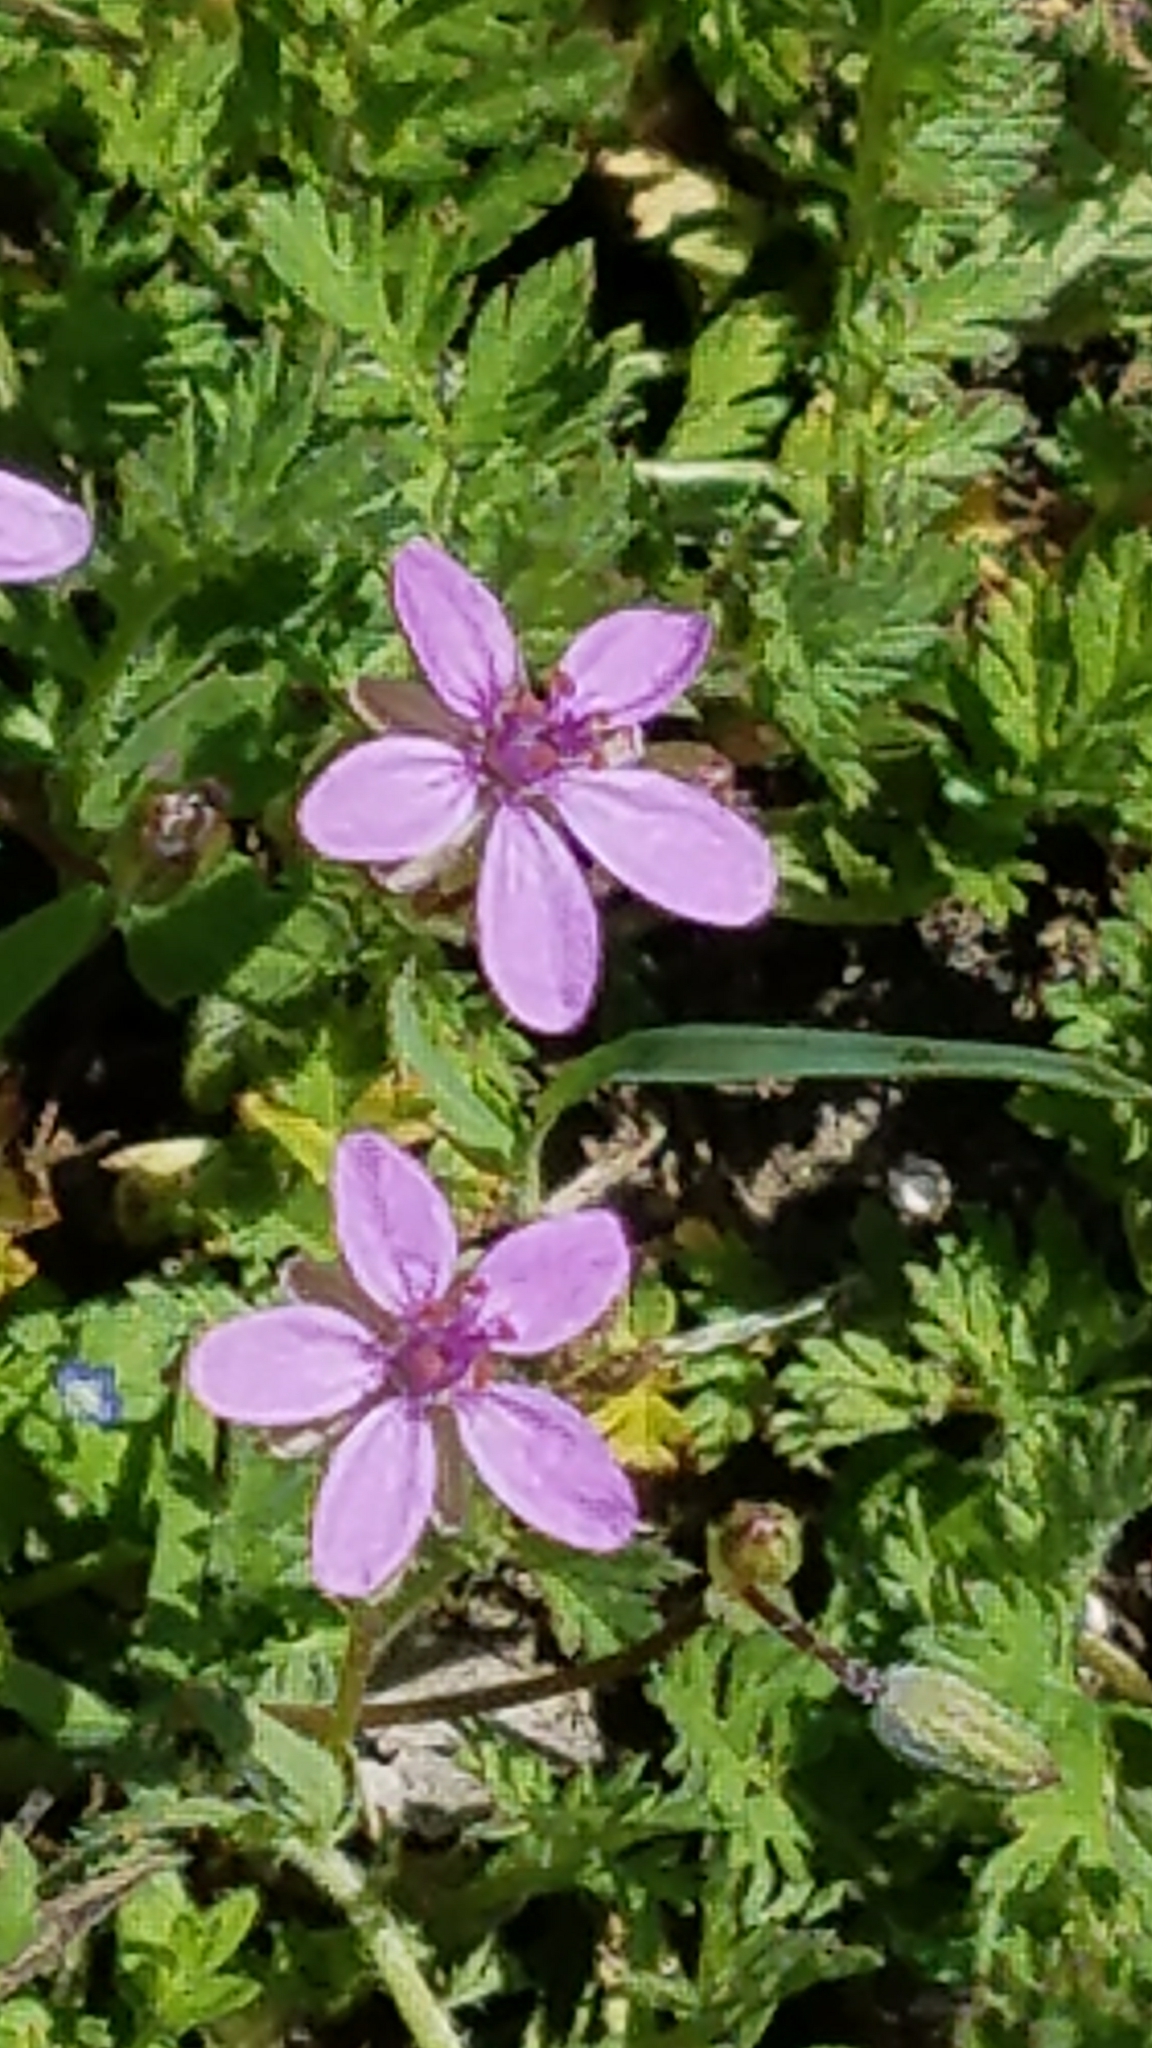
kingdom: Plantae
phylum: Tracheophyta
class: Magnoliopsida
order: Geraniales
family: Geraniaceae
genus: Erodium
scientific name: Erodium cicutarium
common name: Common stork's-bill
